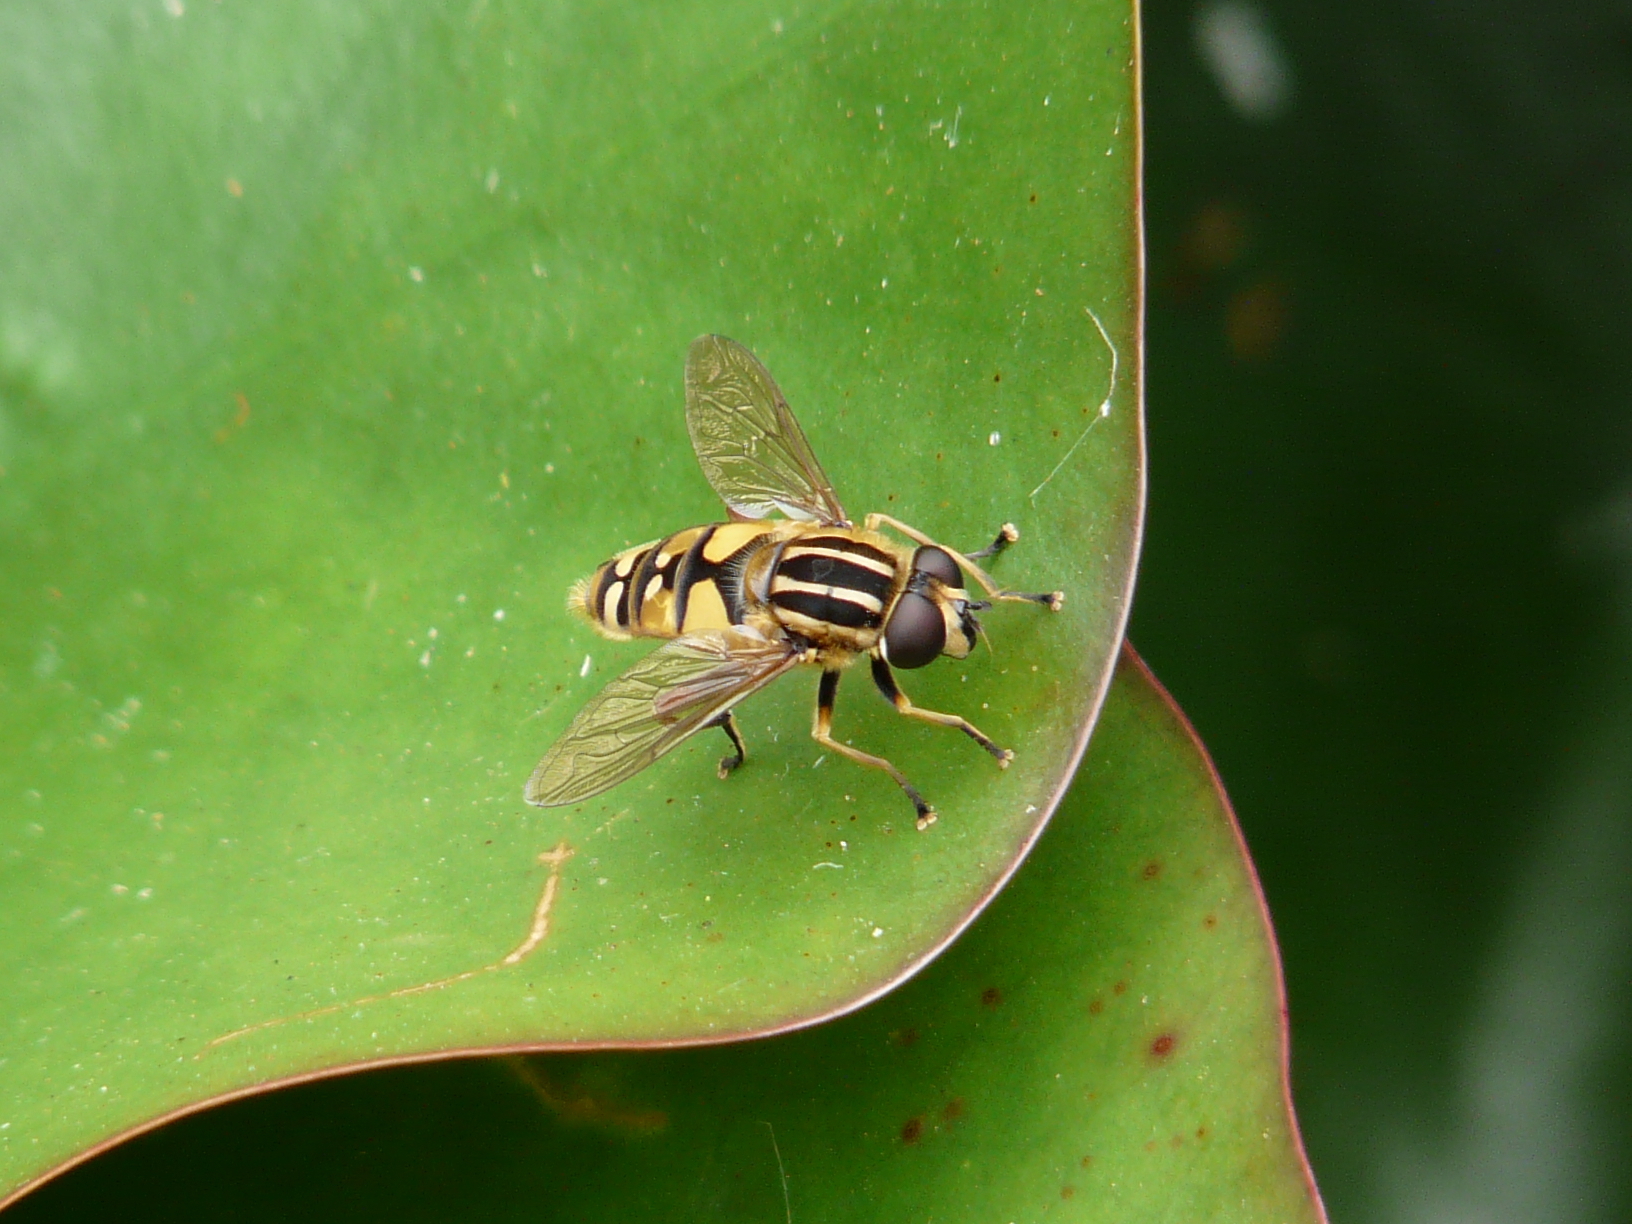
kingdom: Animalia
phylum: Arthropoda
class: Insecta
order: Diptera
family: Syrphidae
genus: Helophilus
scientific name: Helophilus pendulus
